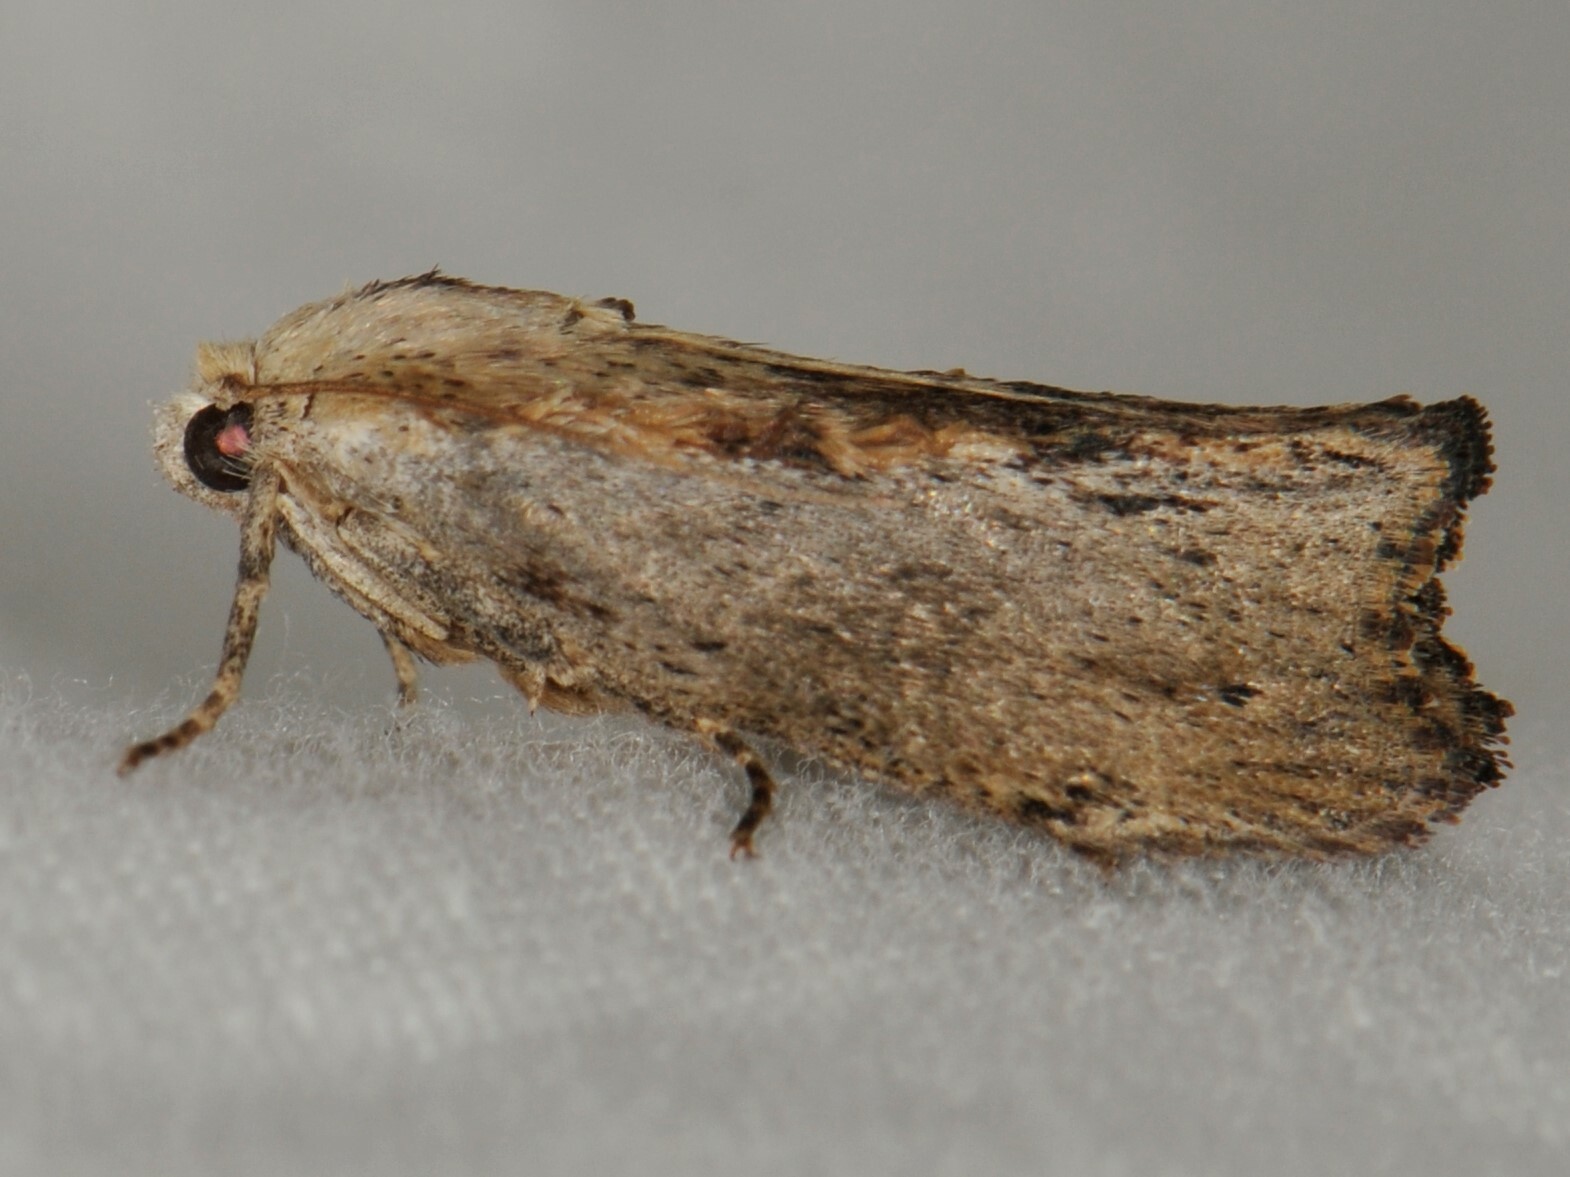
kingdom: Animalia
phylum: Arthropoda
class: Insecta
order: Lepidoptera
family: Pyralidae
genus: Galleria
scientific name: Galleria mellonella
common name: Greater wax moth
